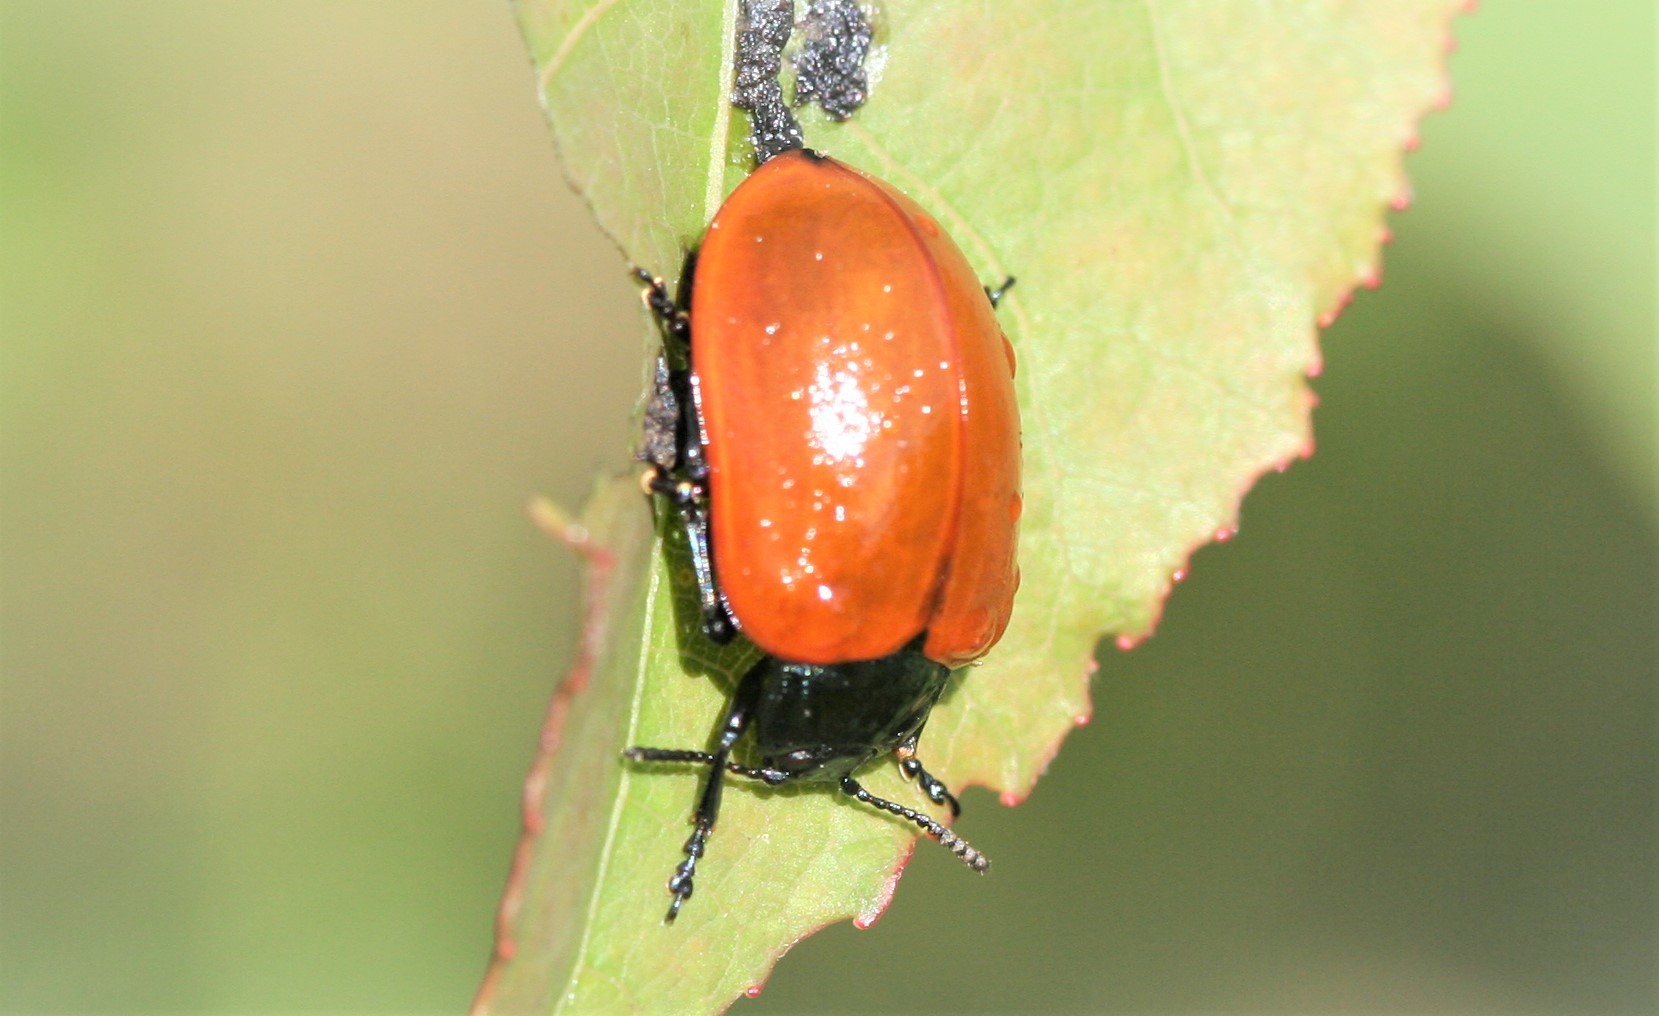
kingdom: Animalia
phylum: Arthropoda
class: Insecta
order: Coleoptera
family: Chrysomelidae
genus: Chrysomela
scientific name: Chrysomela populi
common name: Red poplar leaf beetle
